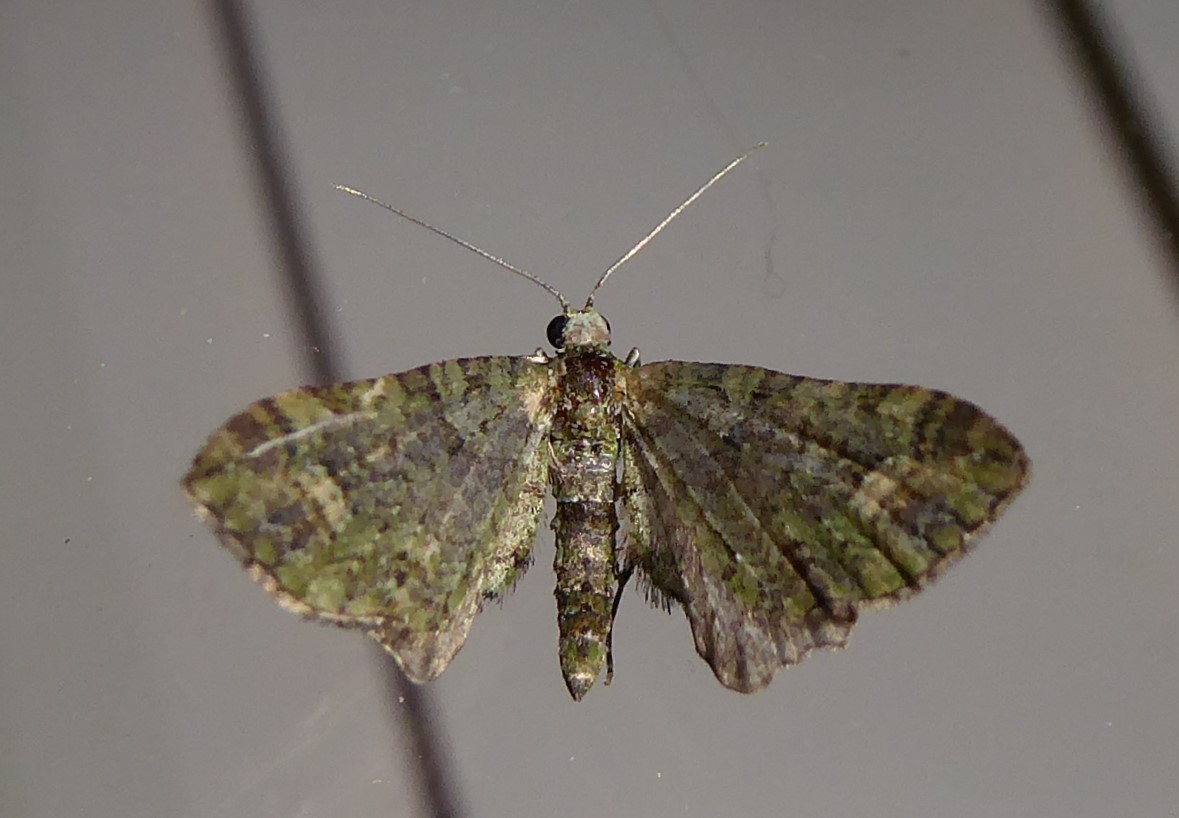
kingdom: Animalia
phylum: Arthropoda
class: Insecta
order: Lepidoptera
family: Geometridae
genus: Idaea
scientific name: Idaea mutanda
